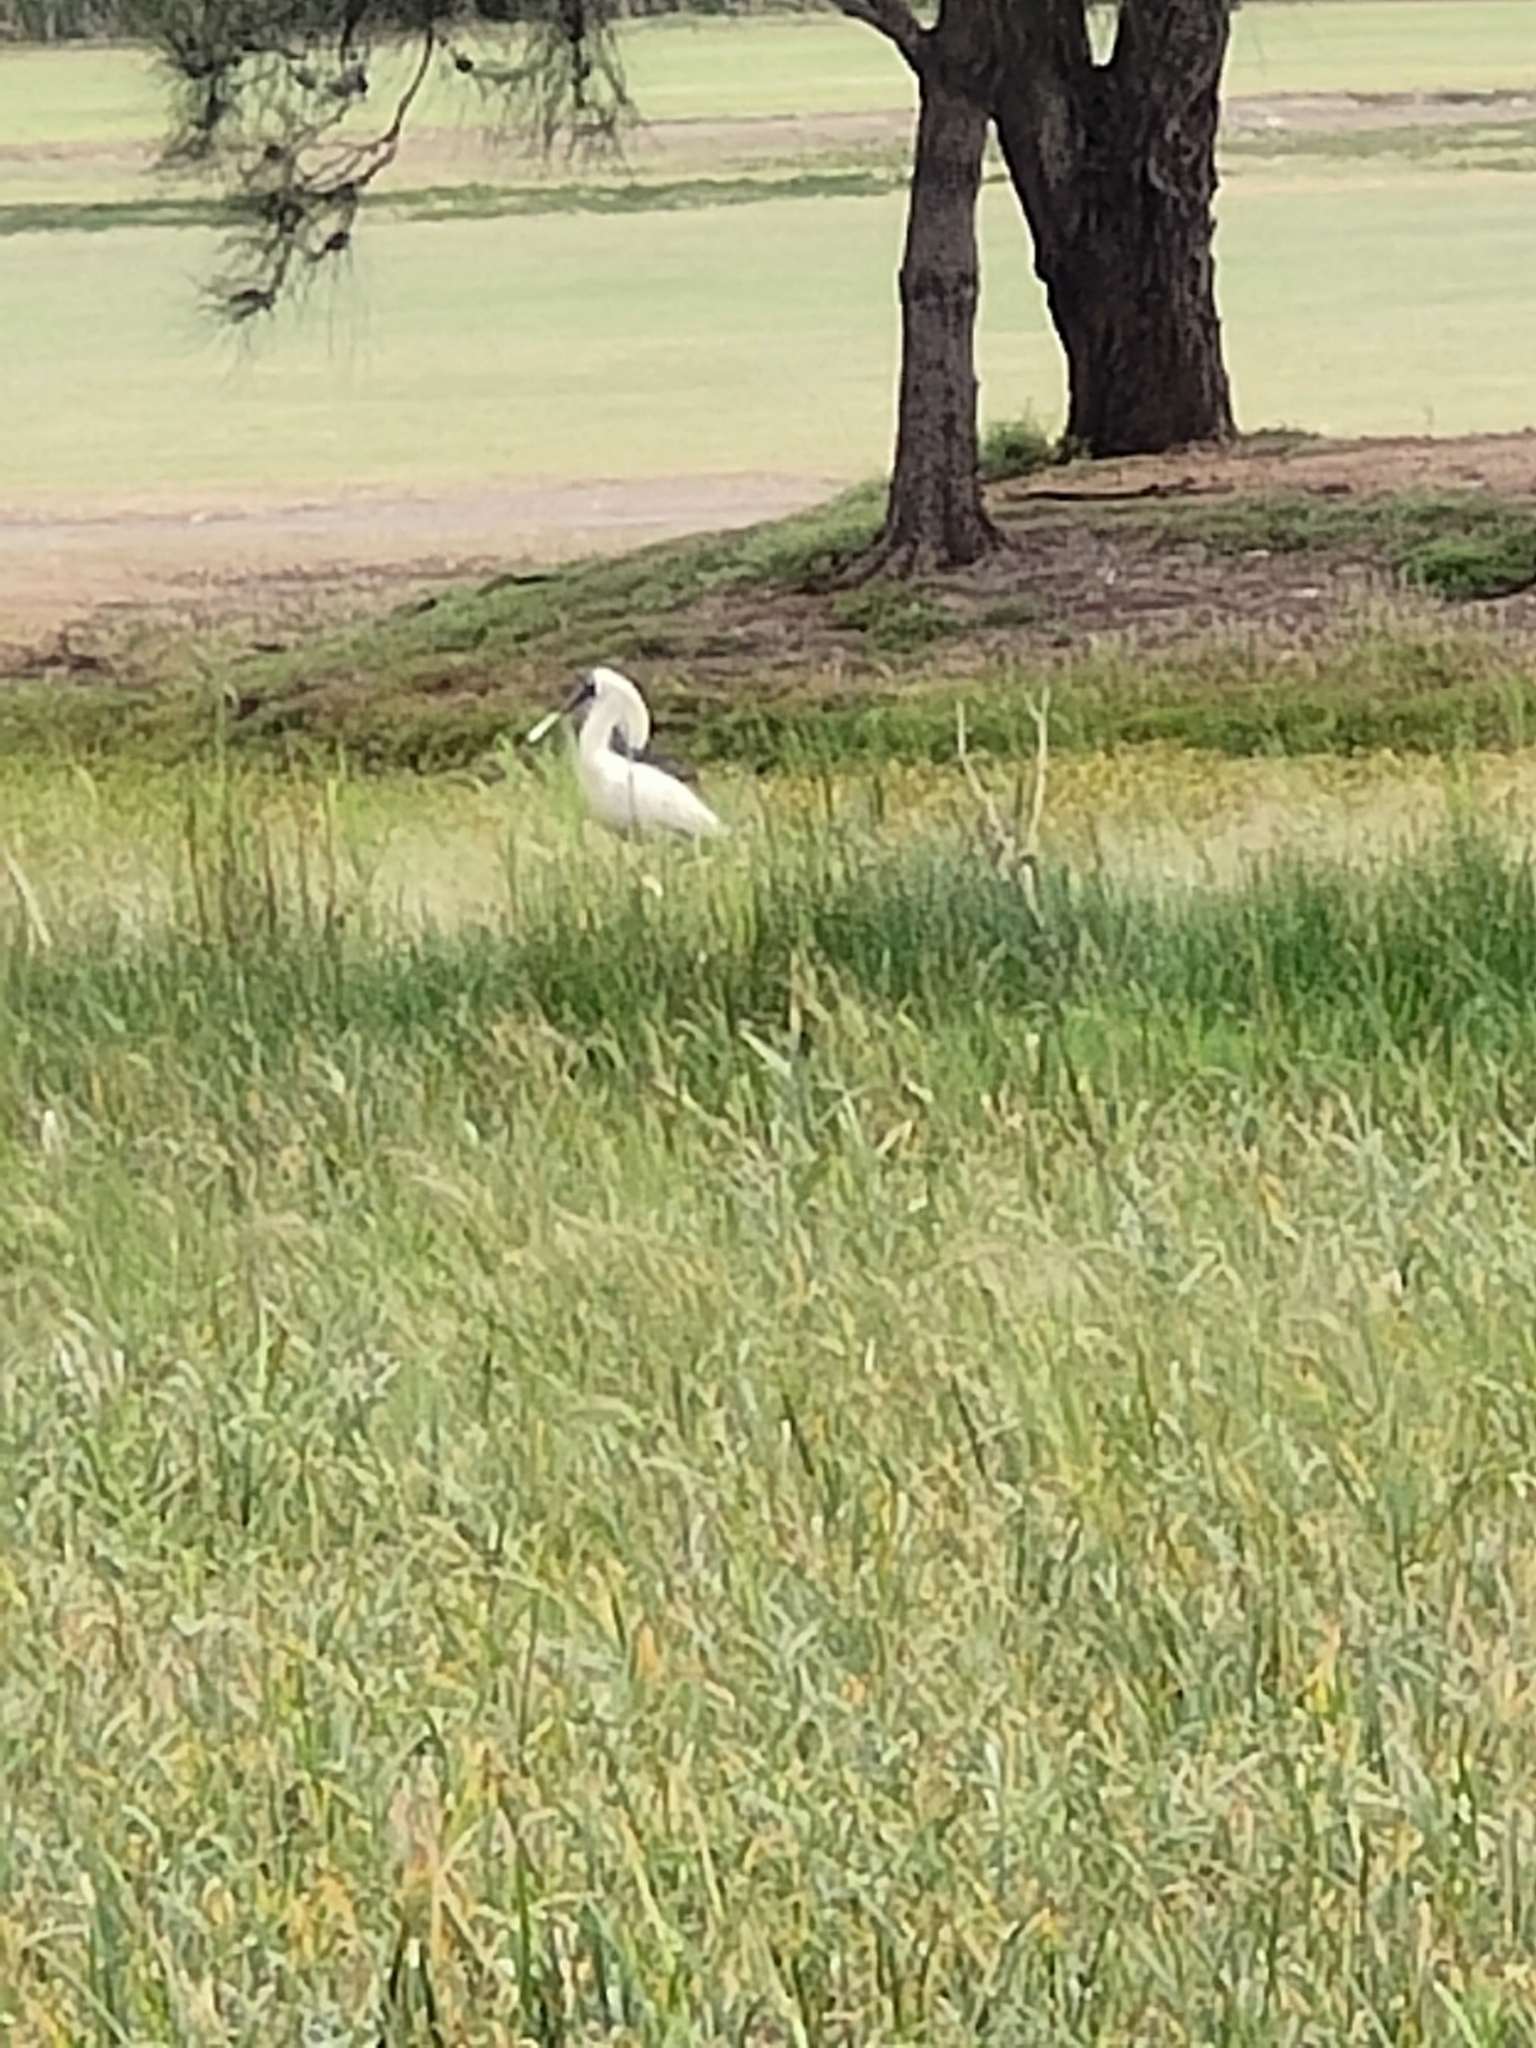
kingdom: Animalia
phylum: Chordata
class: Aves
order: Pelecaniformes
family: Threskiornithidae
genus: Platalea
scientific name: Platalea regia
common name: Royal spoonbill
